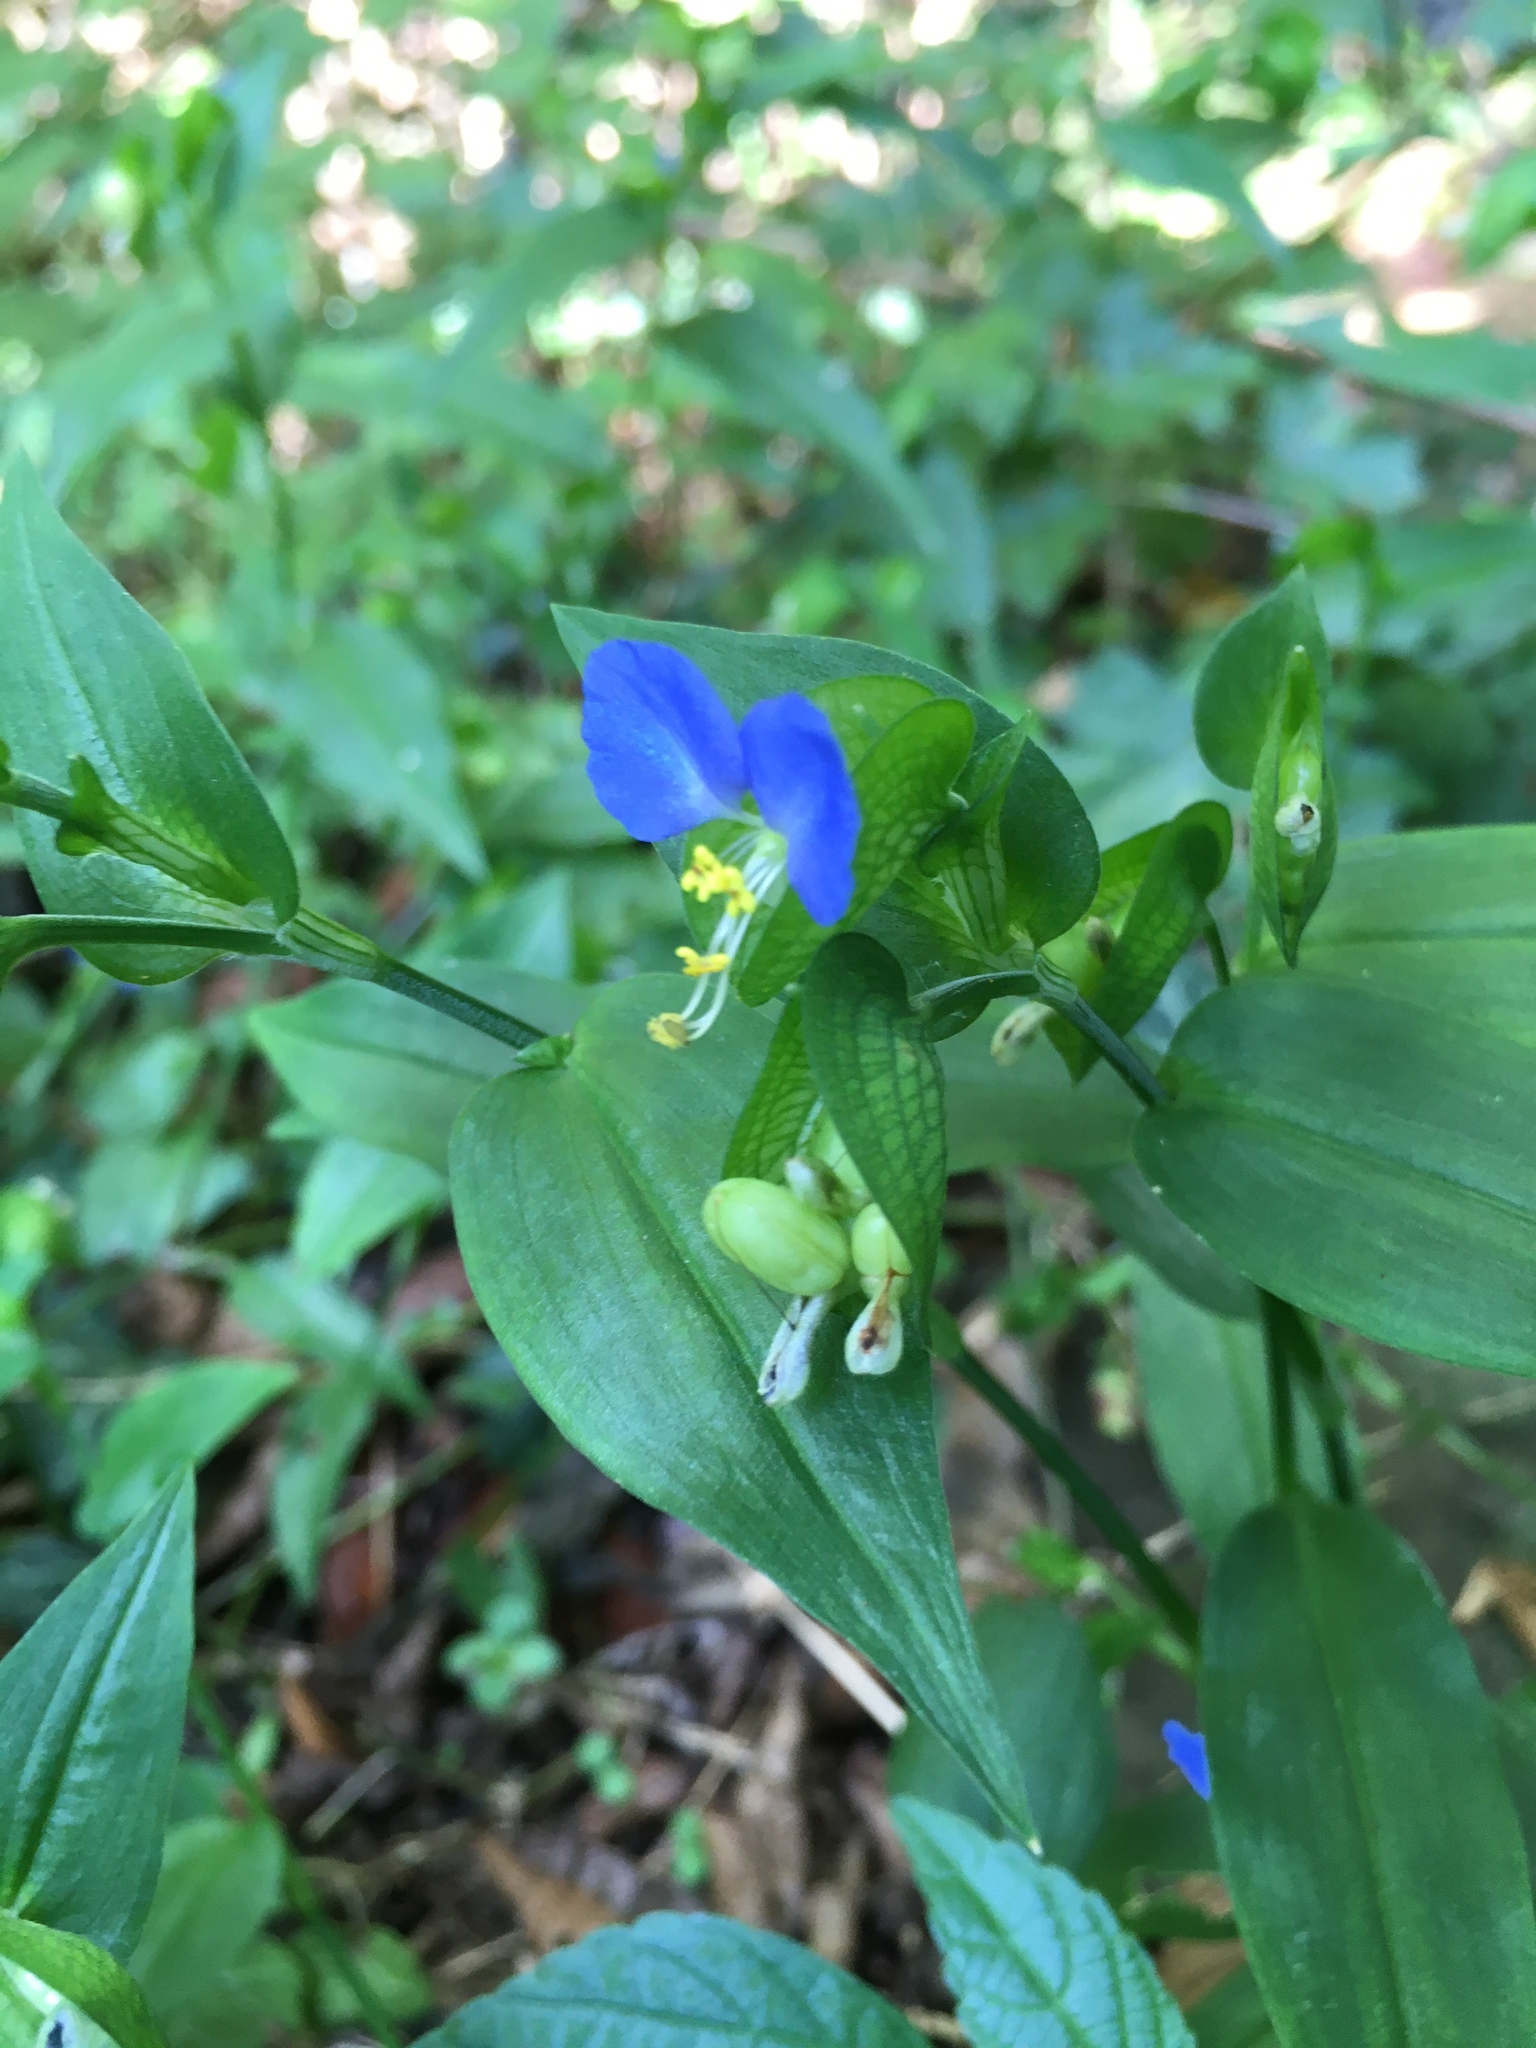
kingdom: Plantae
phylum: Tracheophyta
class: Liliopsida
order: Commelinales
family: Commelinaceae
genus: Commelina
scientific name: Commelina communis
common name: Asiatic dayflower
